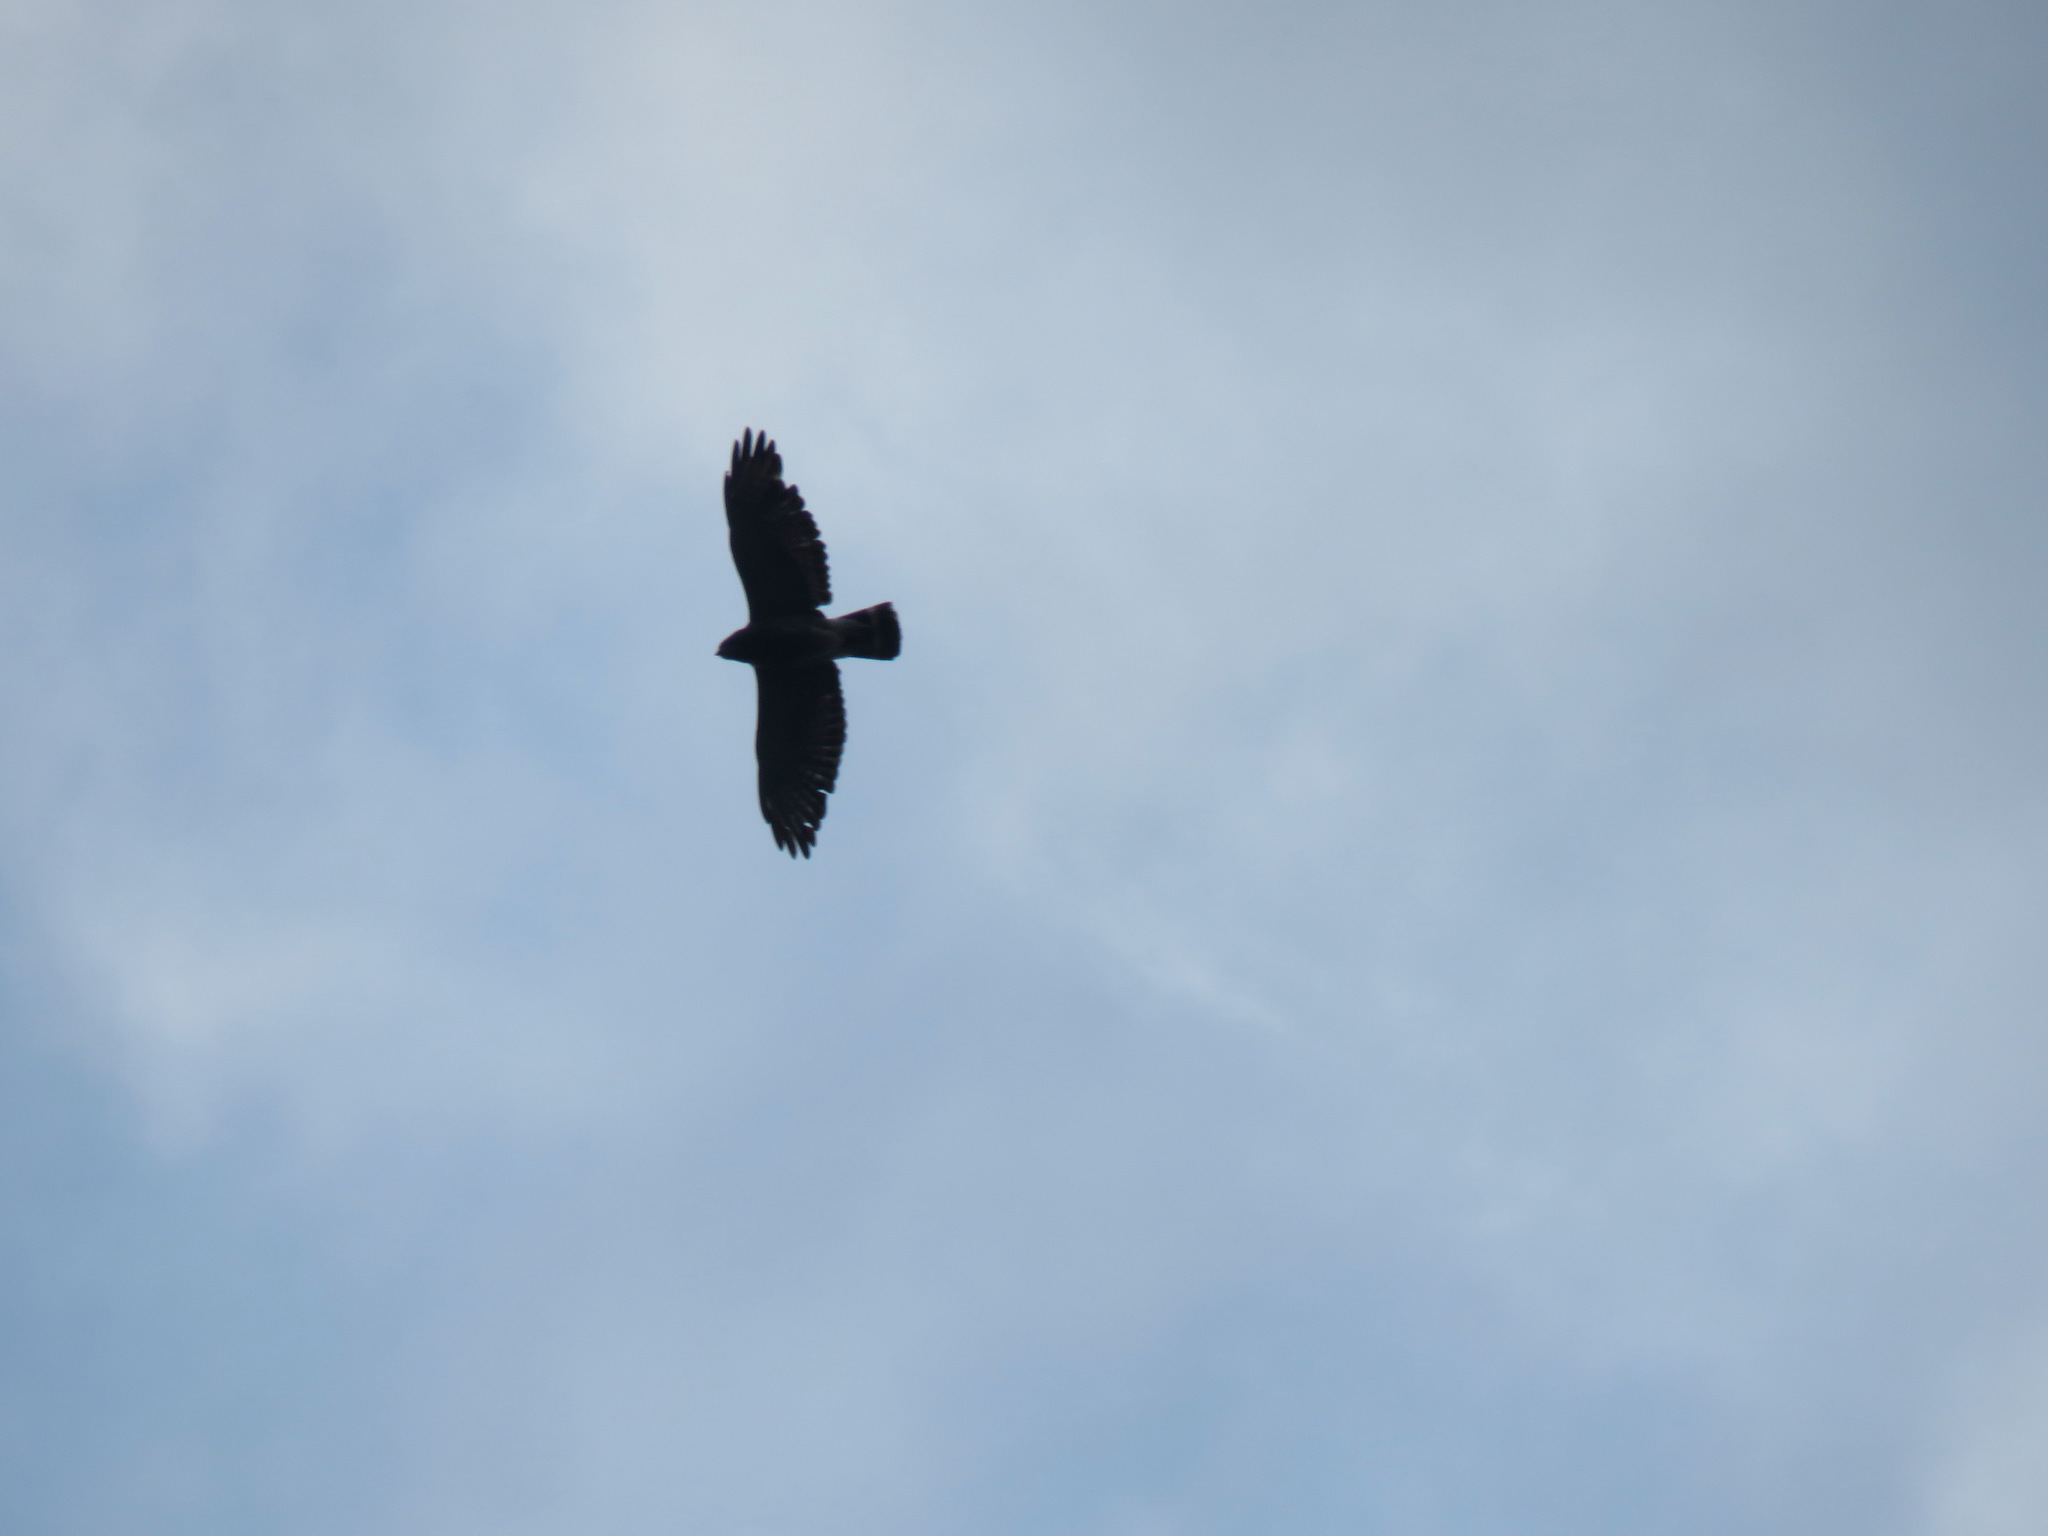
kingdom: Animalia
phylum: Chordata
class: Aves
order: Accipitriformes
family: Accipitridae
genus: Buteo
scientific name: Buteo platypterus
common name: Broad-winged hawk
